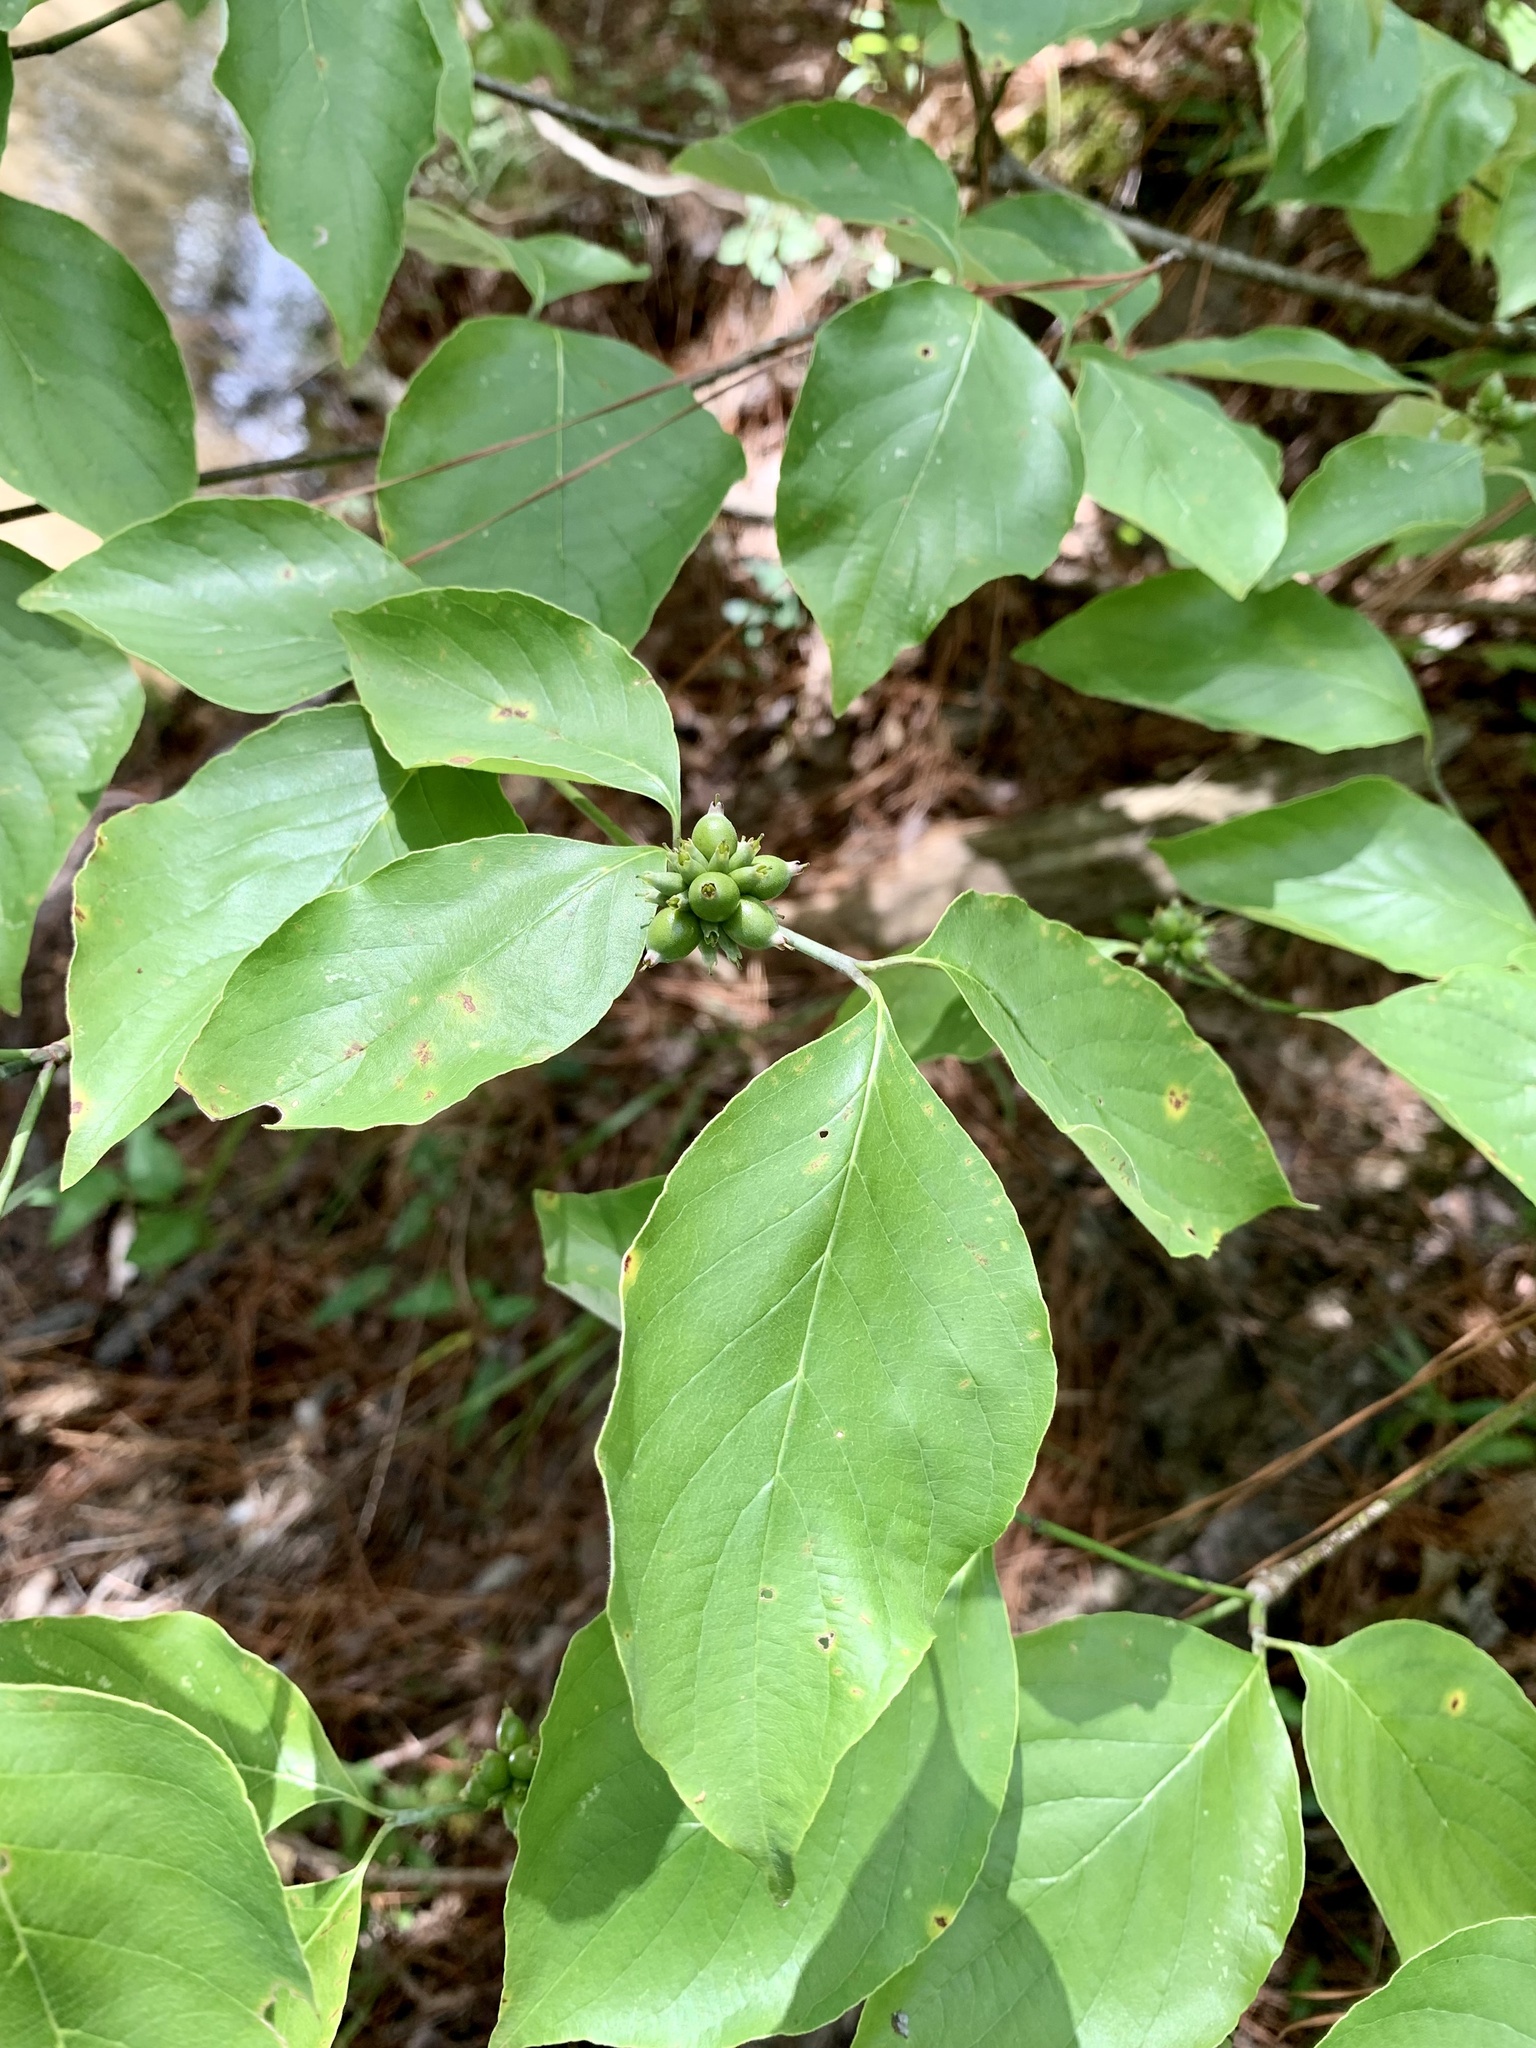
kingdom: Plantae
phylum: Tracheophyta
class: Magnoliopsida
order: Cornales
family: Cornaceae
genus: Cornus
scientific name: Cornus florida
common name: Flowering dogwood
